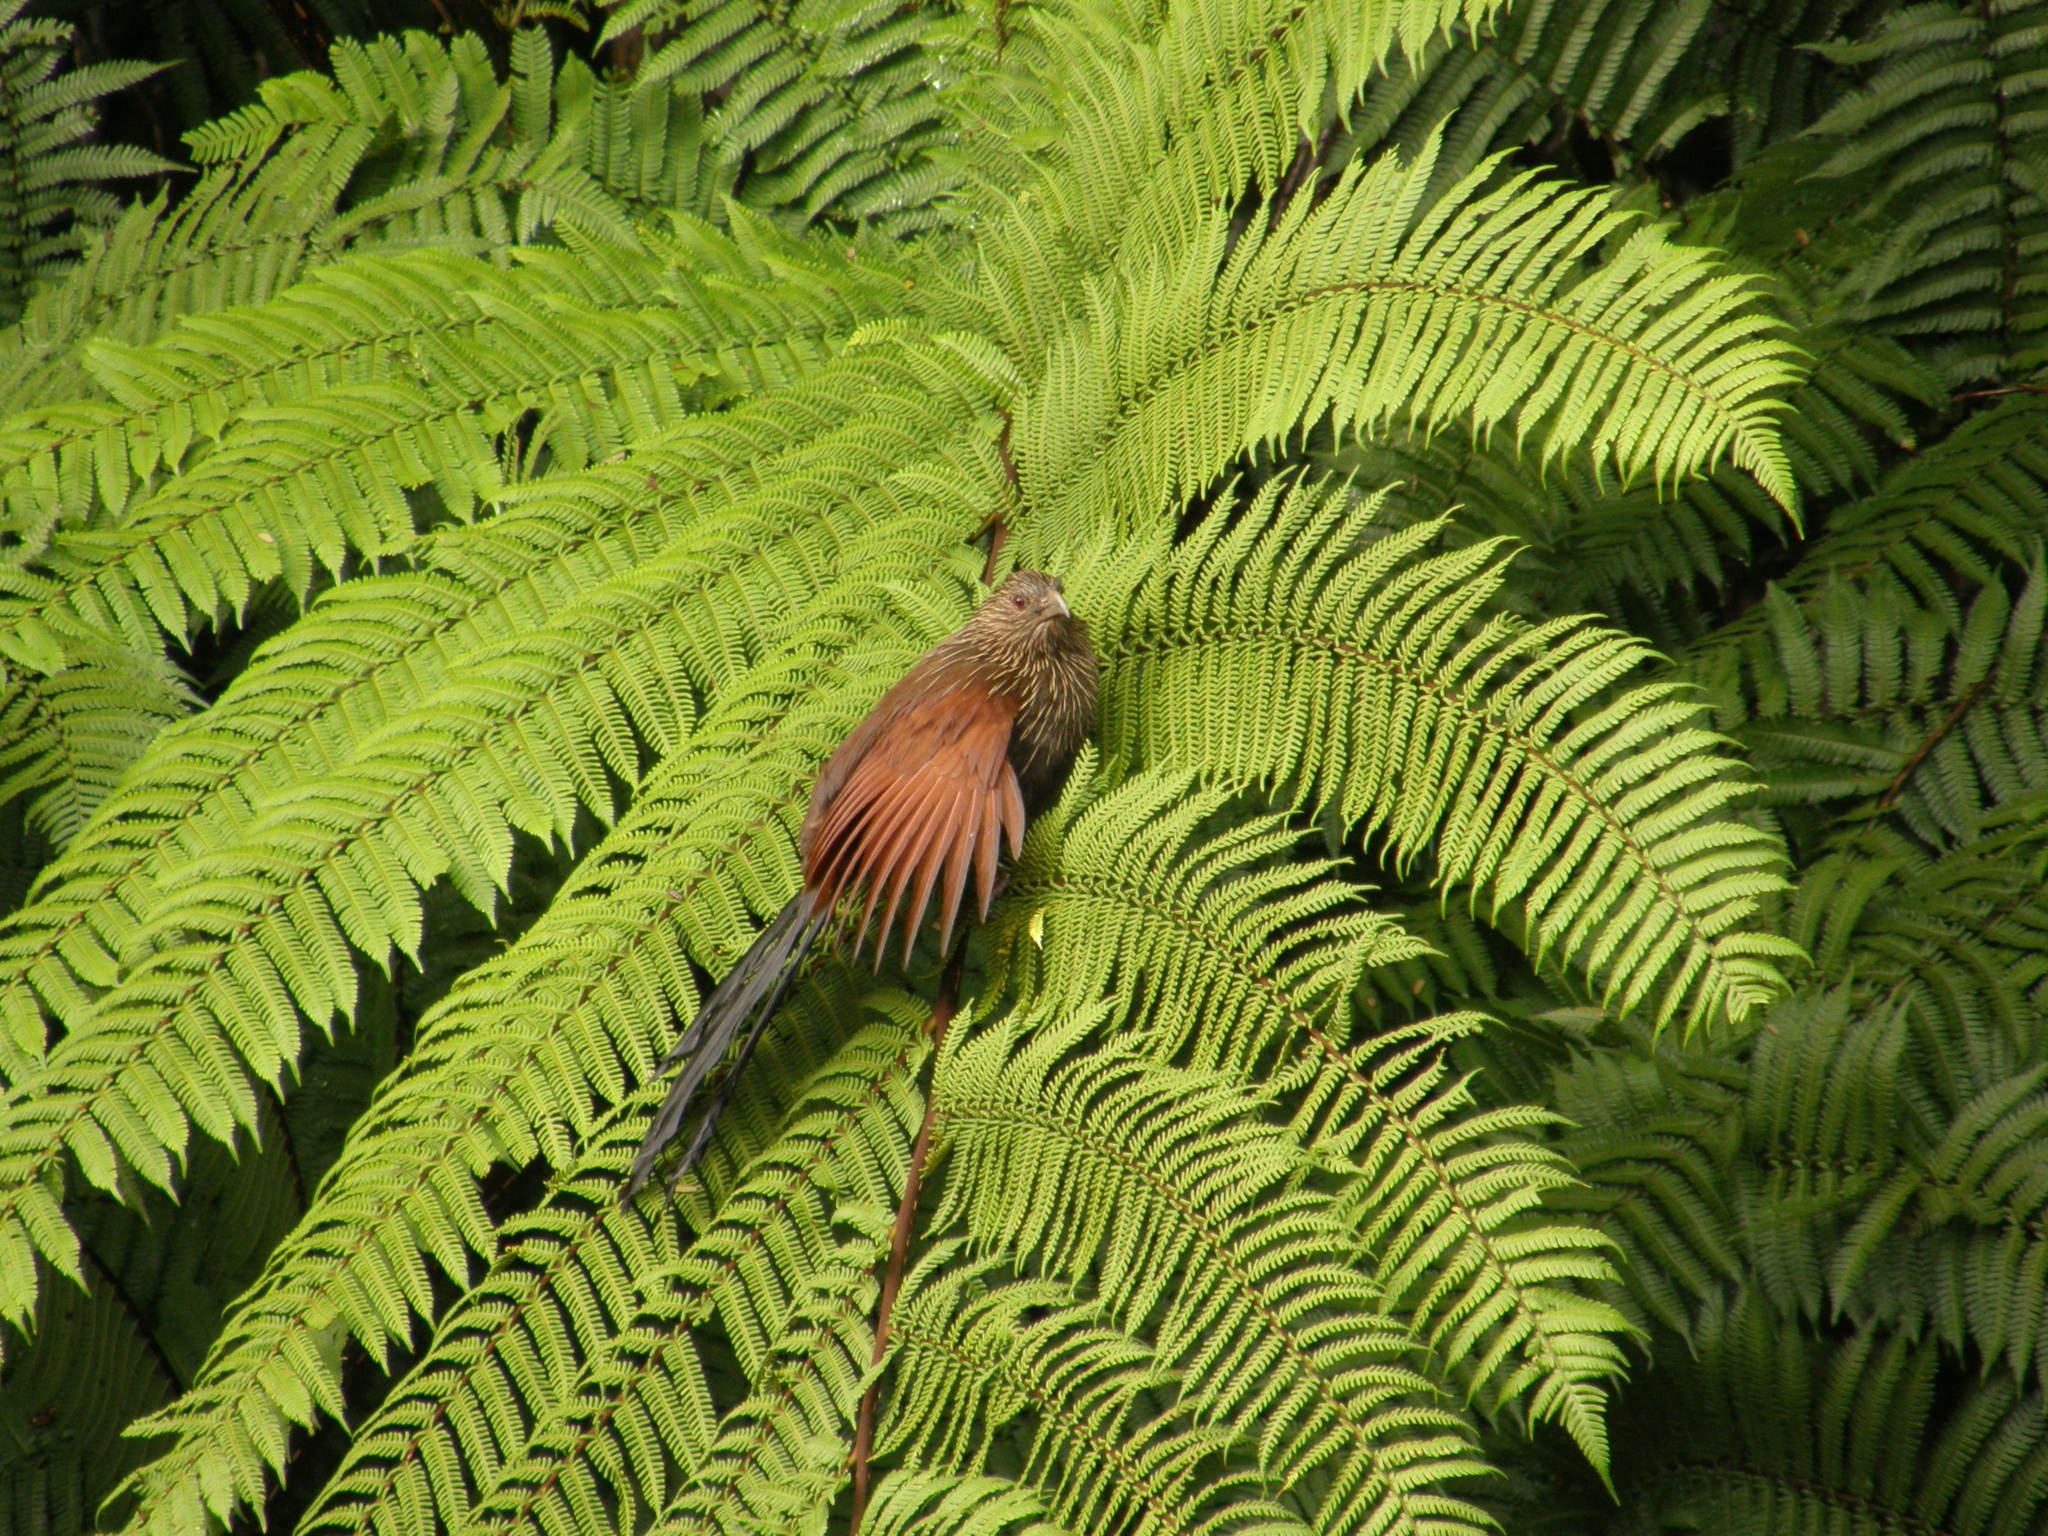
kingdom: Animalia
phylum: Chordata
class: Aves
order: Cuculiformes
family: Cuculidae
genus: Centropus
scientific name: Centropus toulou
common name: Malagasy coucal
